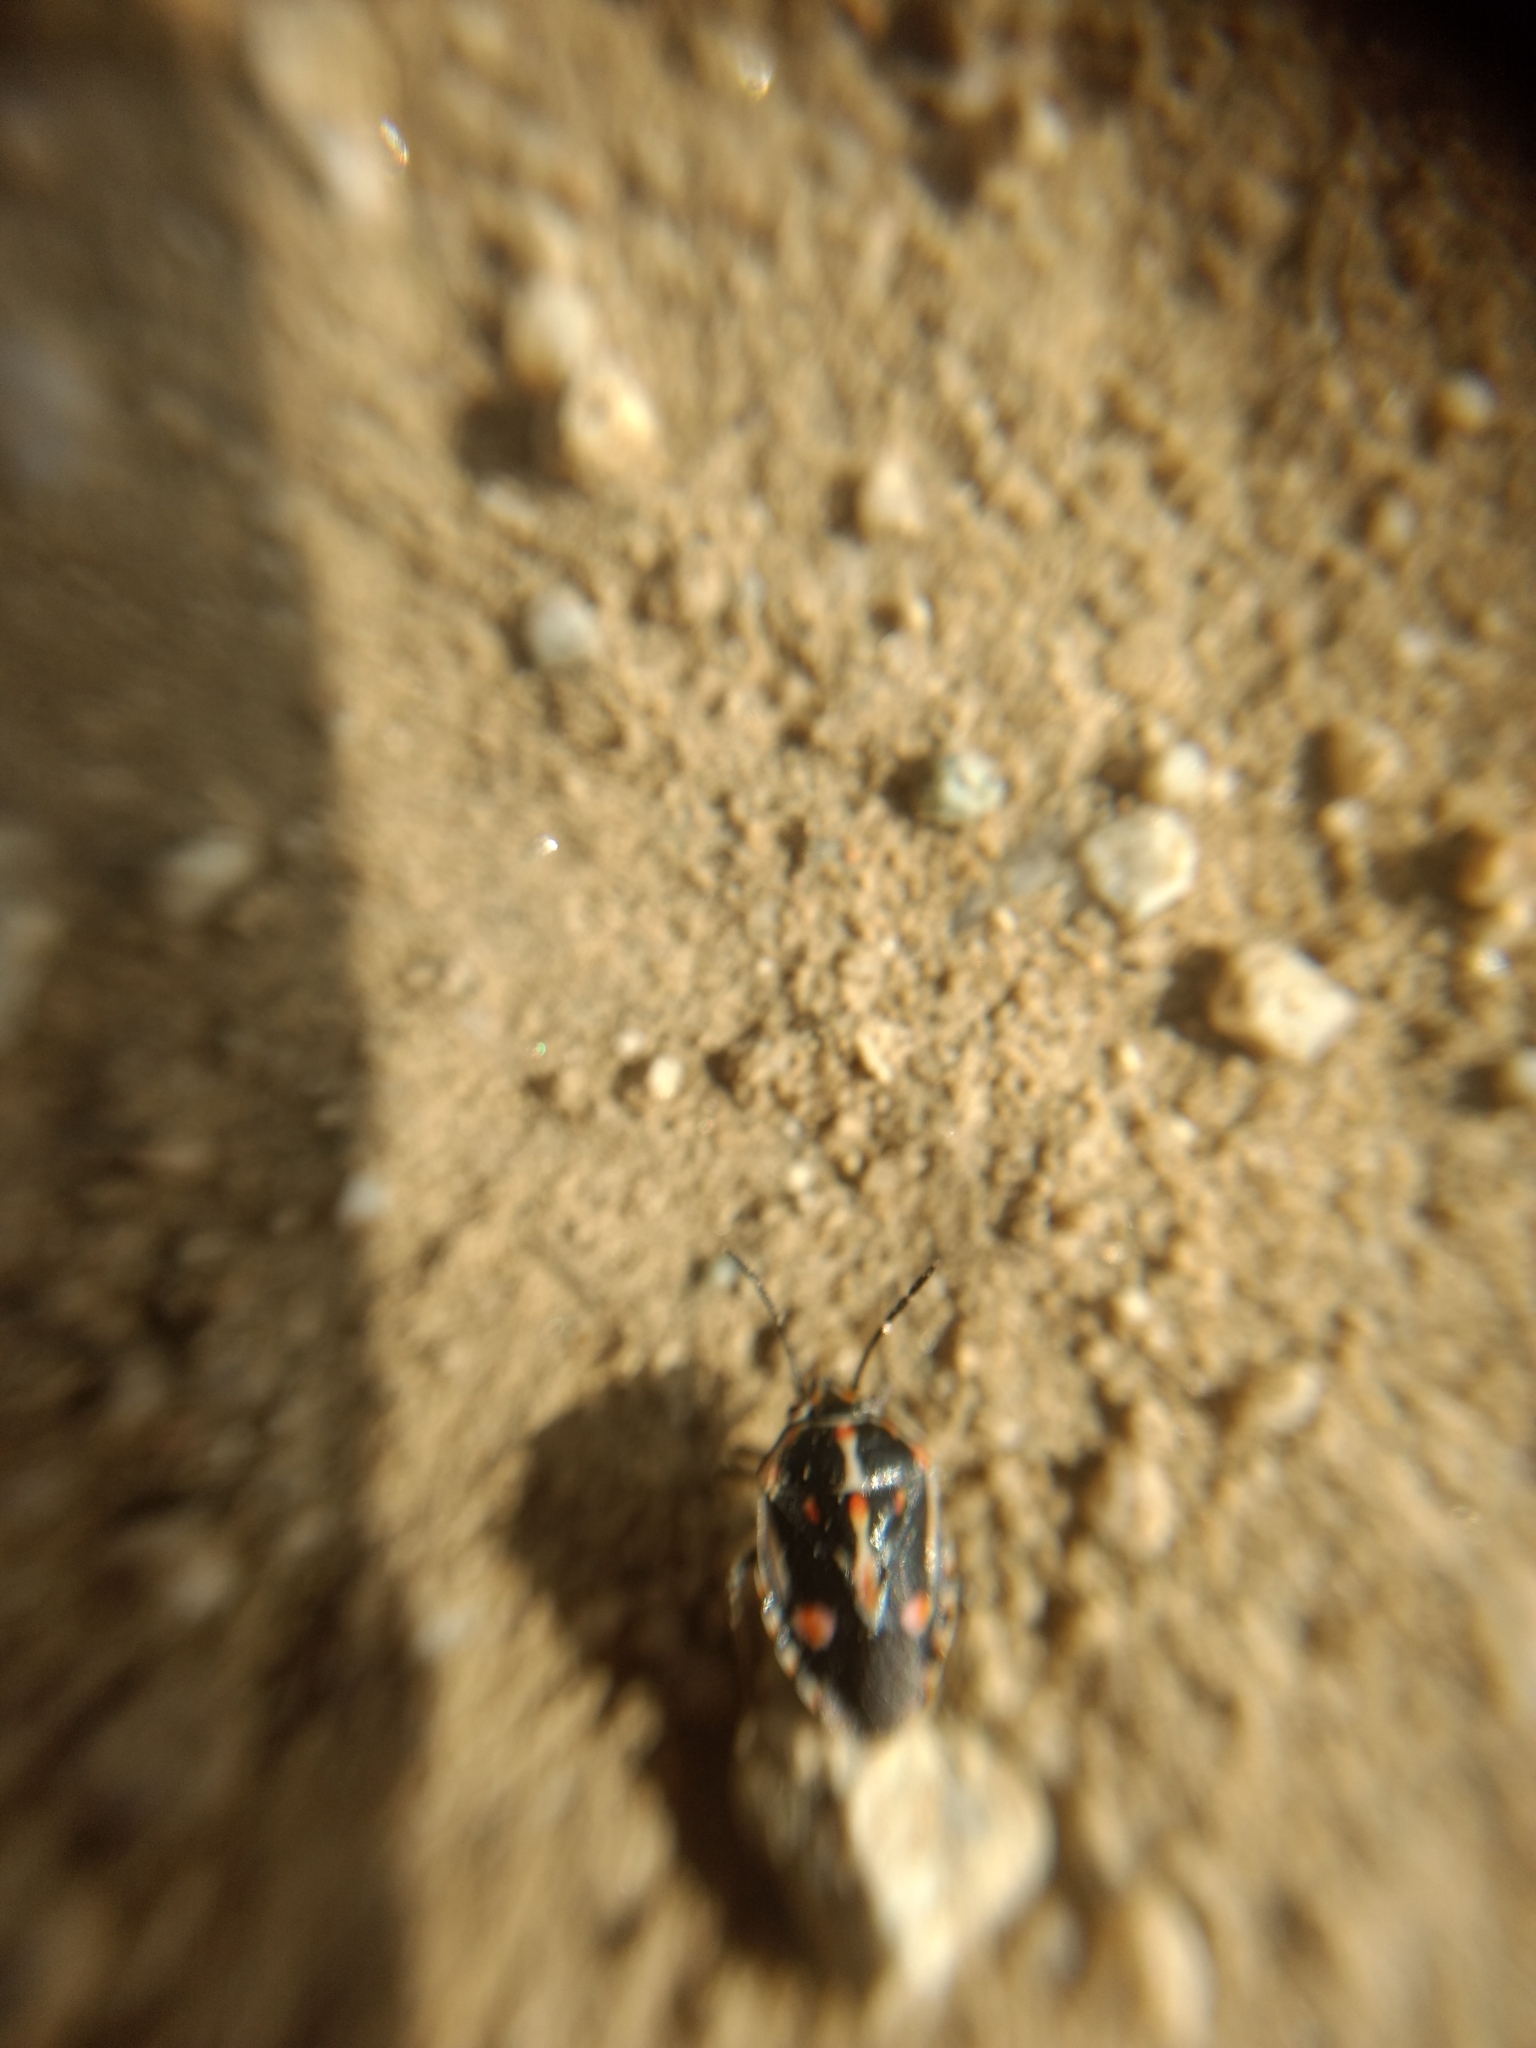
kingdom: Animalia
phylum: Arthropoda
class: Insecta
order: Hemiptera
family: Pentatomidae
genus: Bagrada
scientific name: Bagrada hilaris
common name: Bagrada bug
